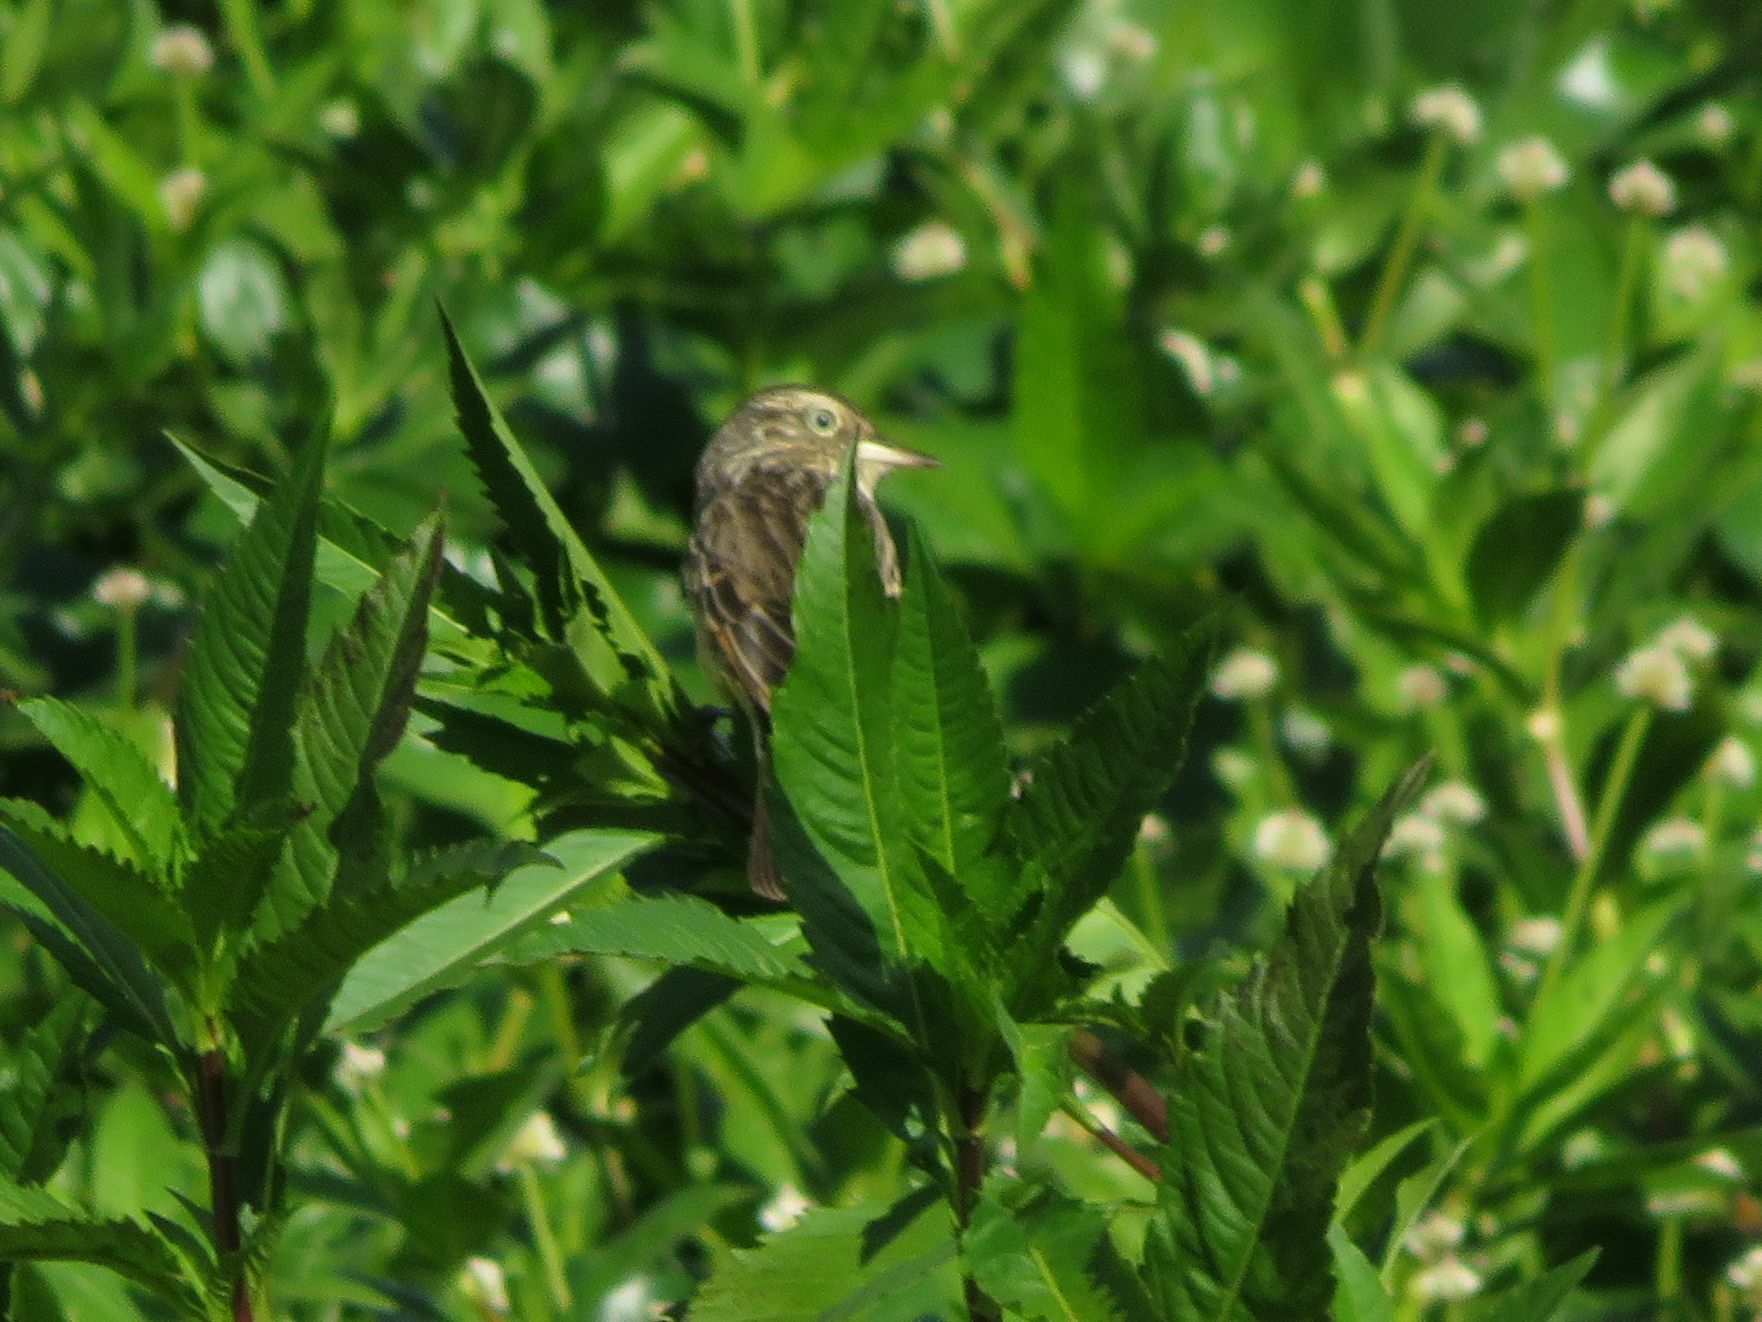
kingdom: Animalia
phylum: Chordata
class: Aves
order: Passeriformes
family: Tyrannidae
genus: Hymenops
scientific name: Hymenops perspicillatus
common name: Spectacled tyrant
